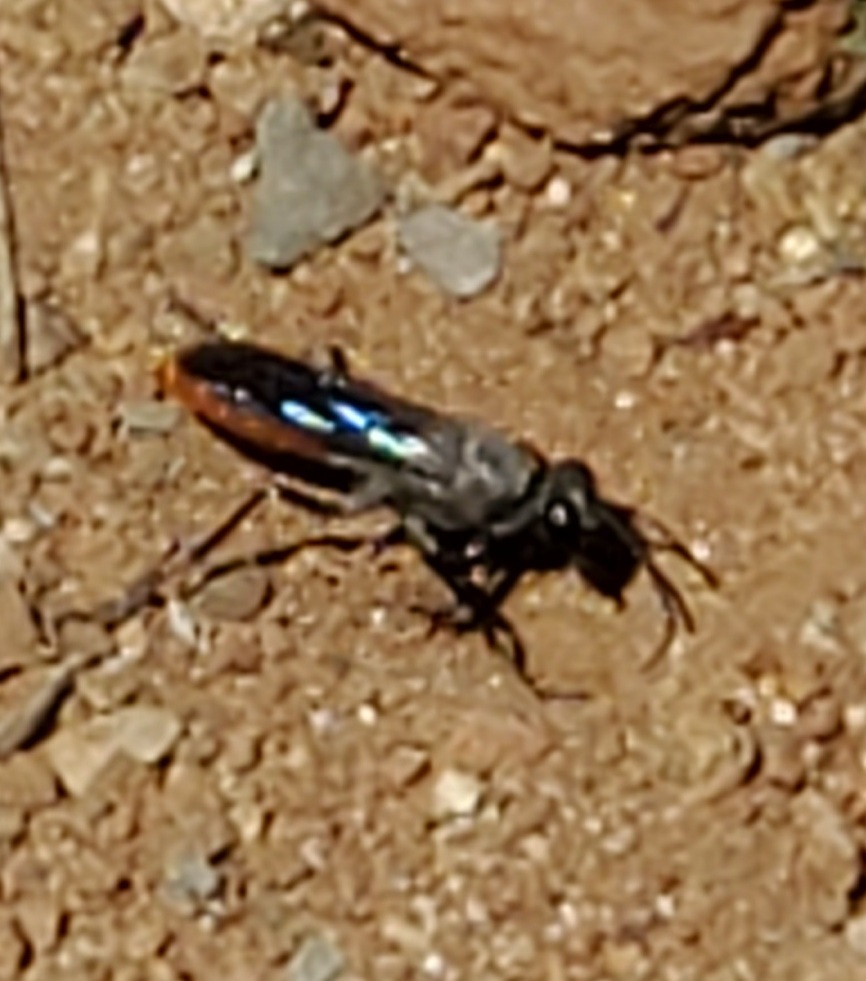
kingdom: Animalia
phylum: Arthropoda
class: Insecta
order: Hymenoptera
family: Sphecidae
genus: Sphex
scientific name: Sphex lucae
